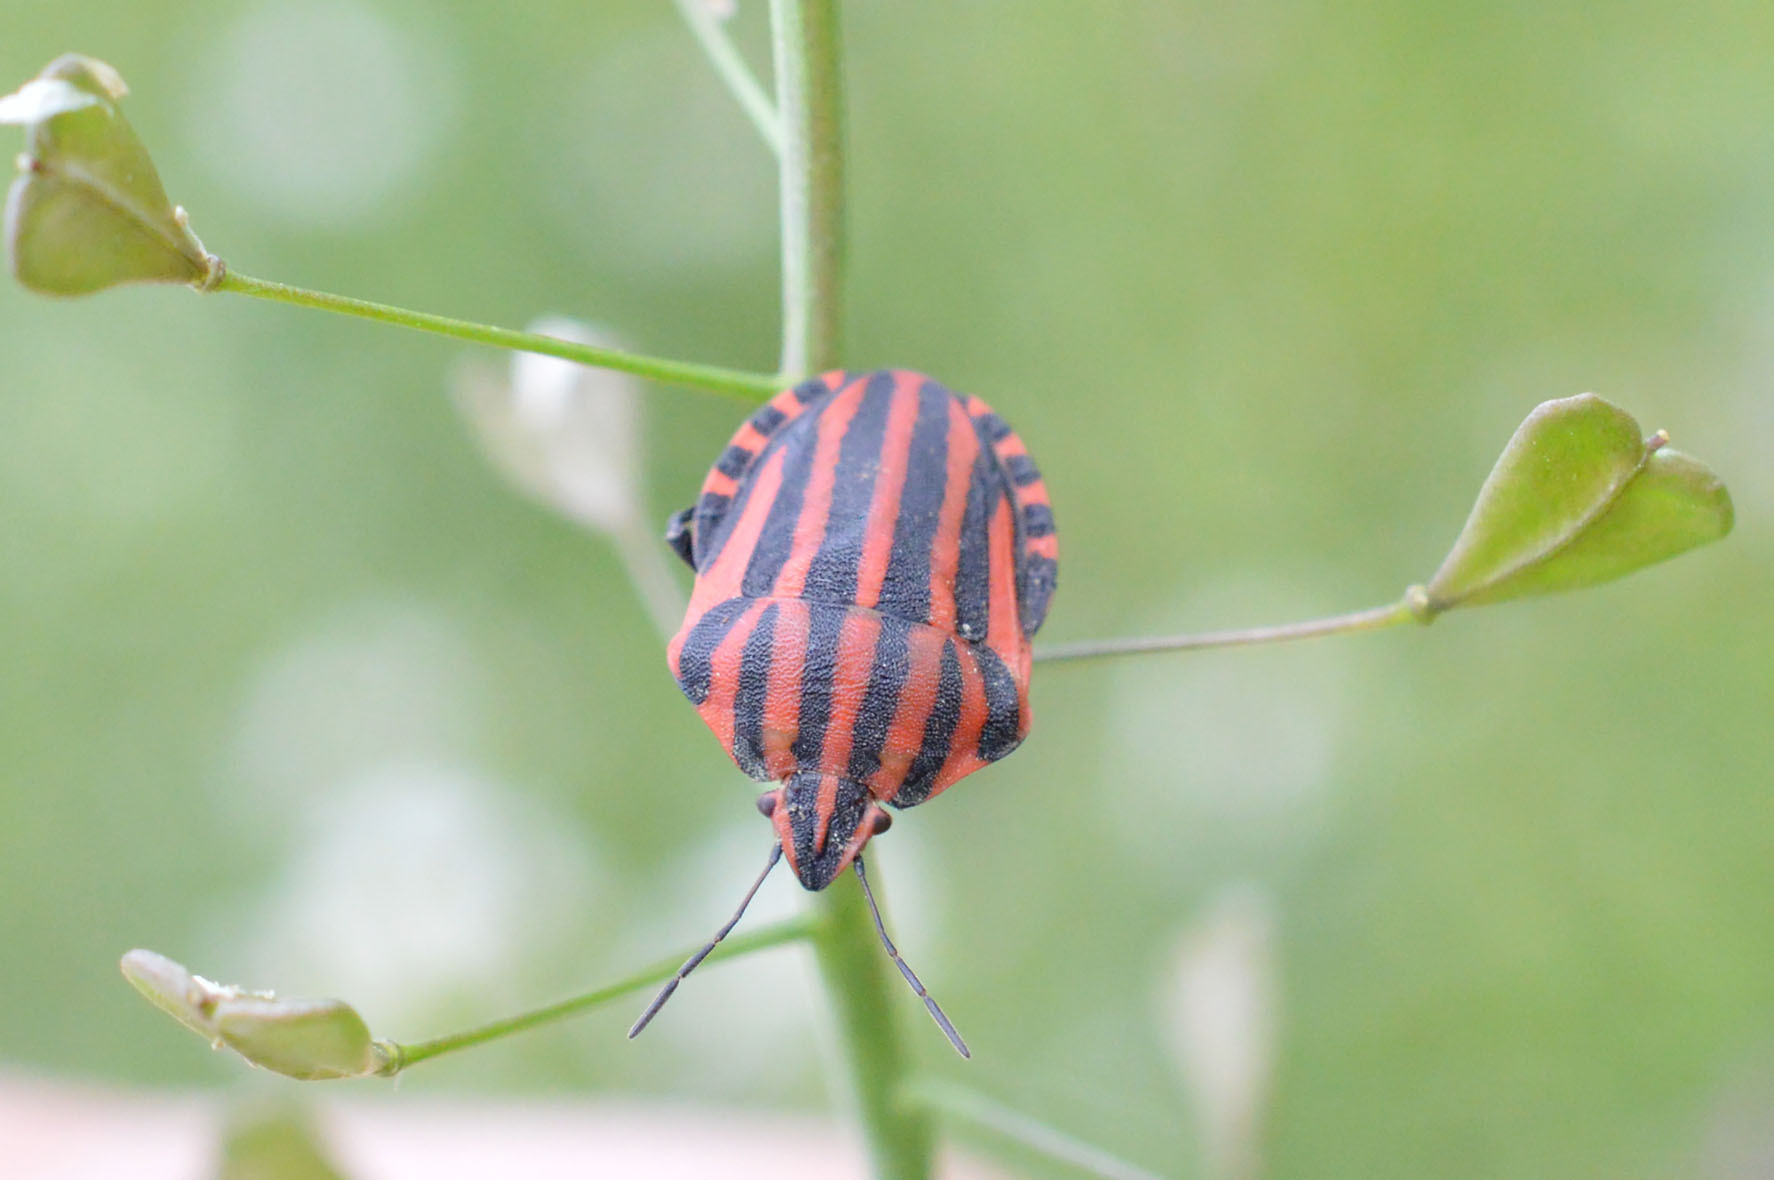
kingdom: Animalia
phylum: Arthropoda
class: Insecta
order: Hemiptera
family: Pentatomidae
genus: Graphosoma
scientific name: Graphosoma italicum
